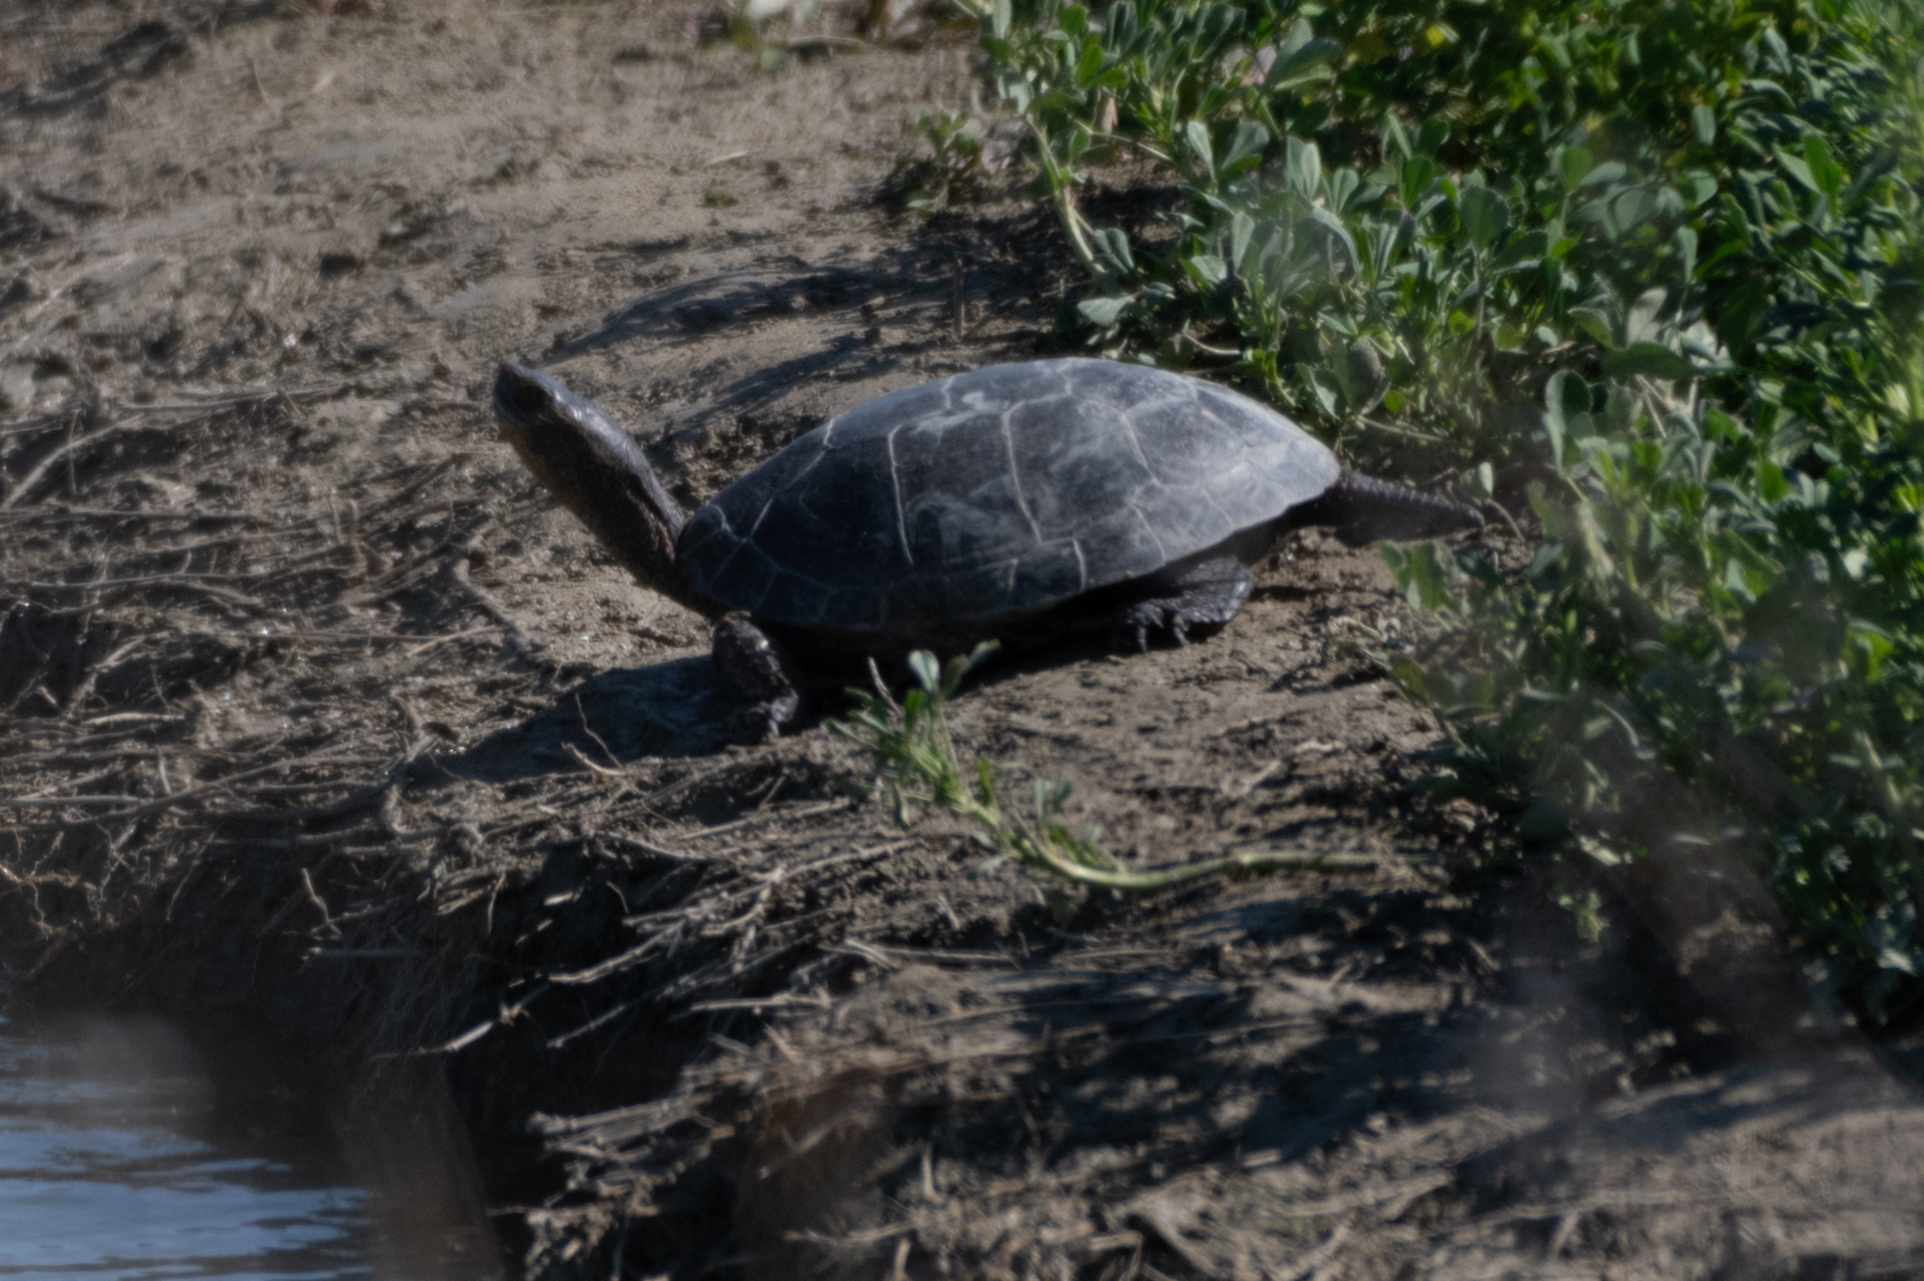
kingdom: Animalia
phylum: Chordata
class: Testudines
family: Emydidae
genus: Actinemys
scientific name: Actinemys marmorata
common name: Western pond turtle
